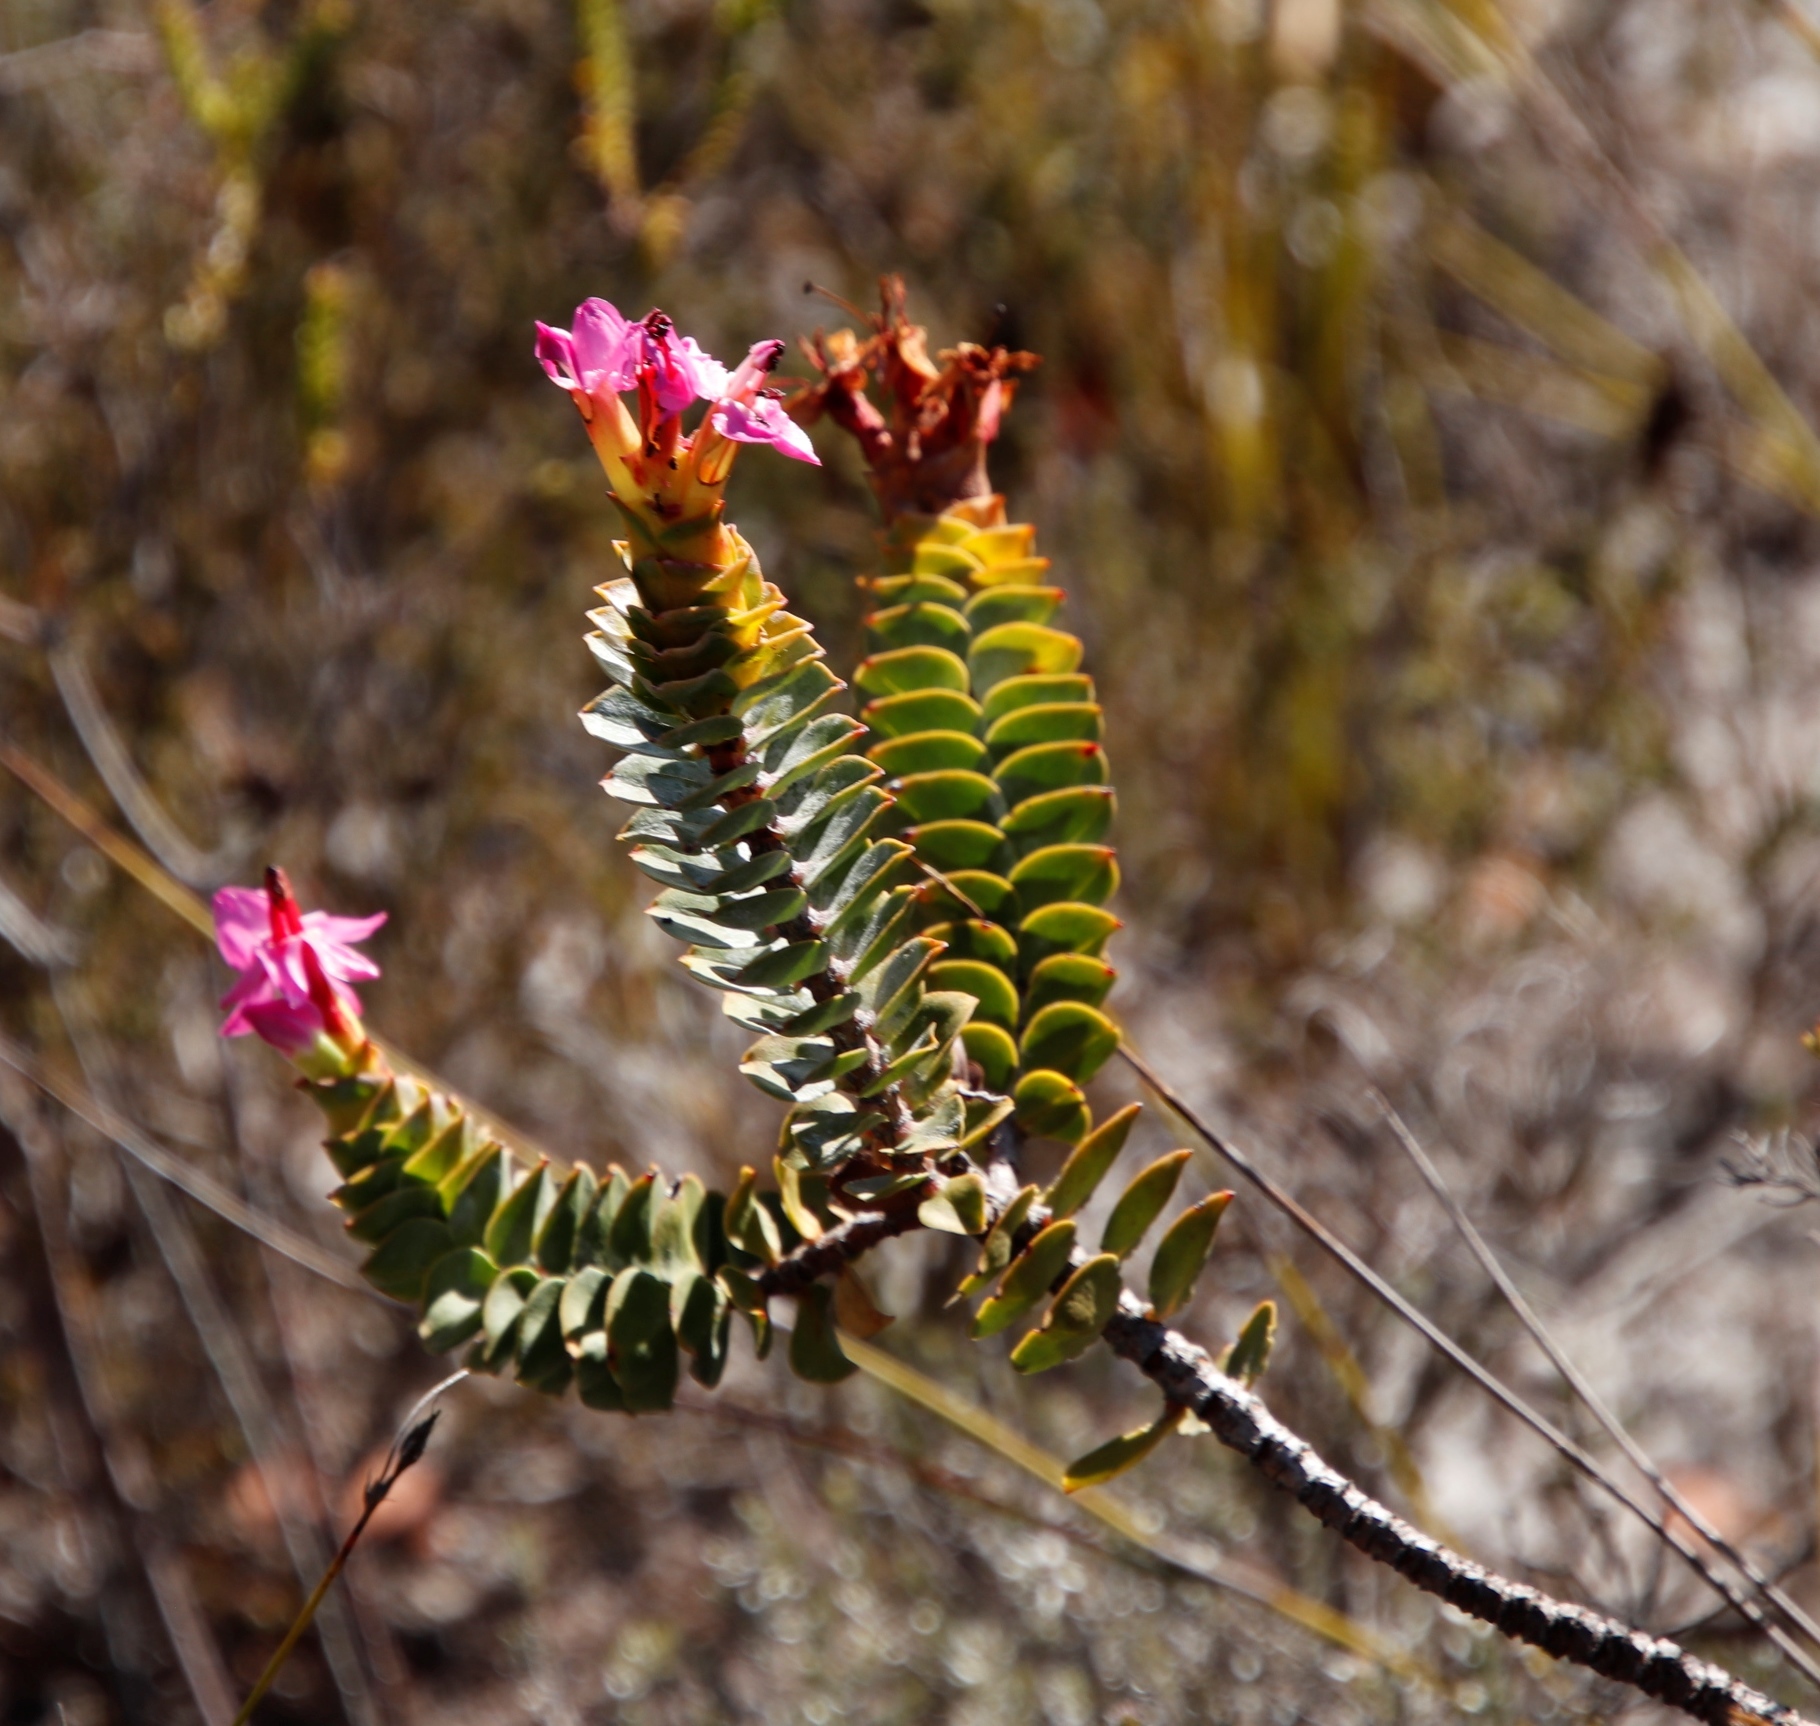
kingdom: Plantae
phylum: Tracheophyta
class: Magnoliopsida
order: Myrtales
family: Penaeaceae
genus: Saltera
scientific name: Saltera sarcocolla
